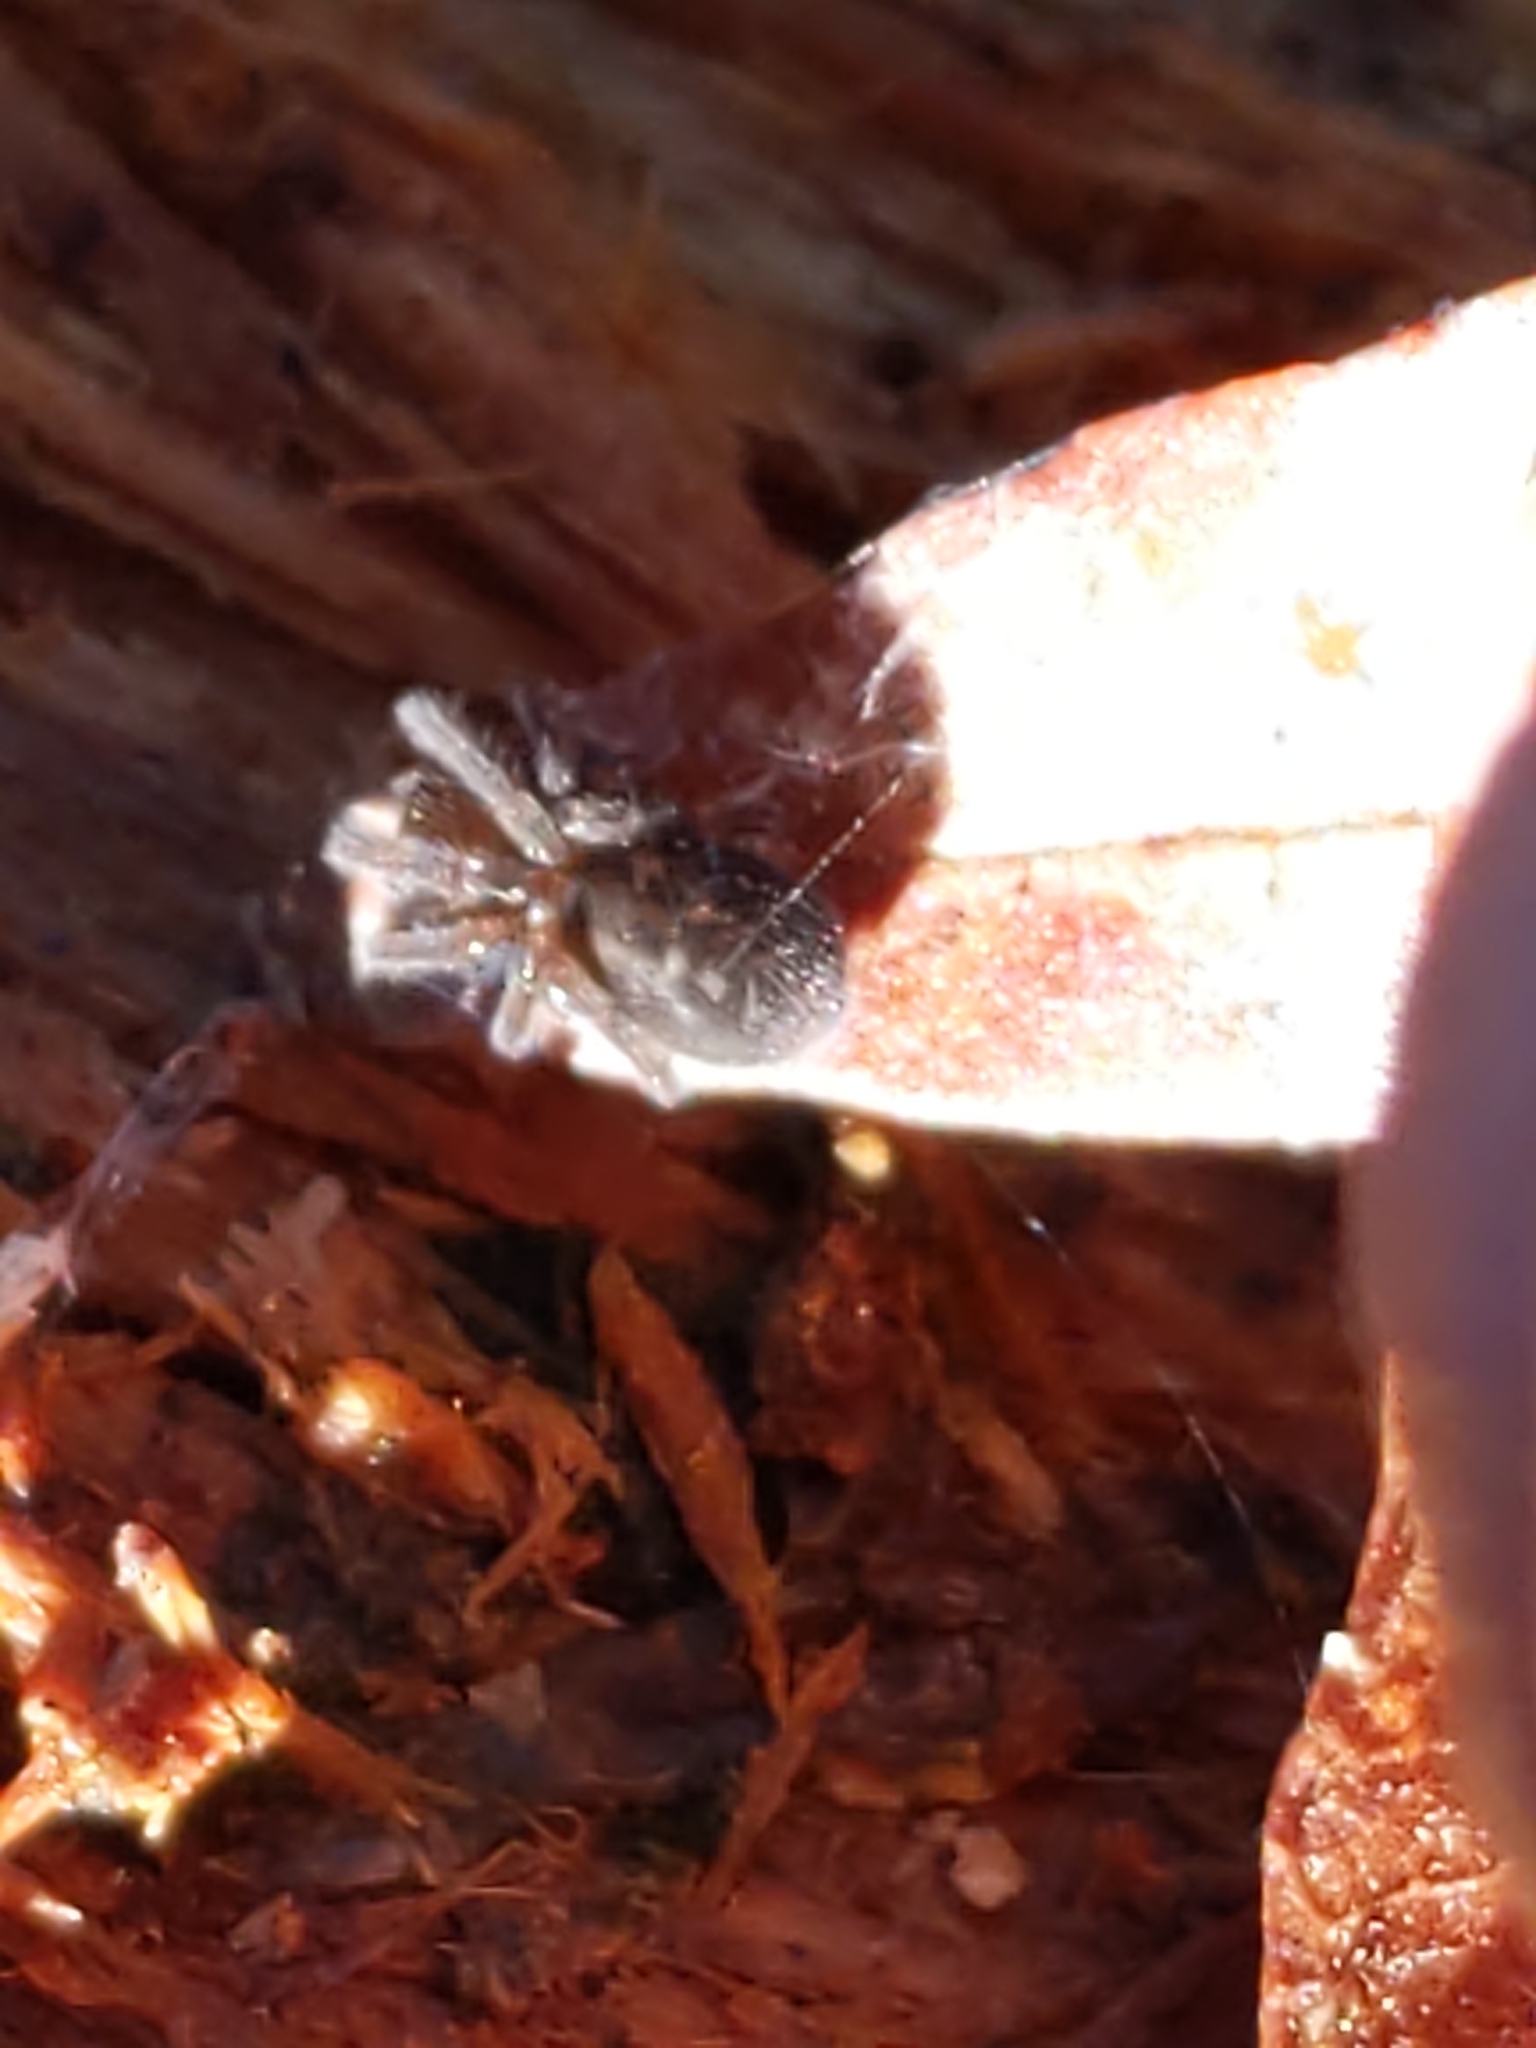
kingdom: Animalia
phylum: Arthropoda
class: Arachnida
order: Araneae
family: Amaurobiidae
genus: Amaurobius
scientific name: Amaurobius ferox
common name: Black laceweaver
